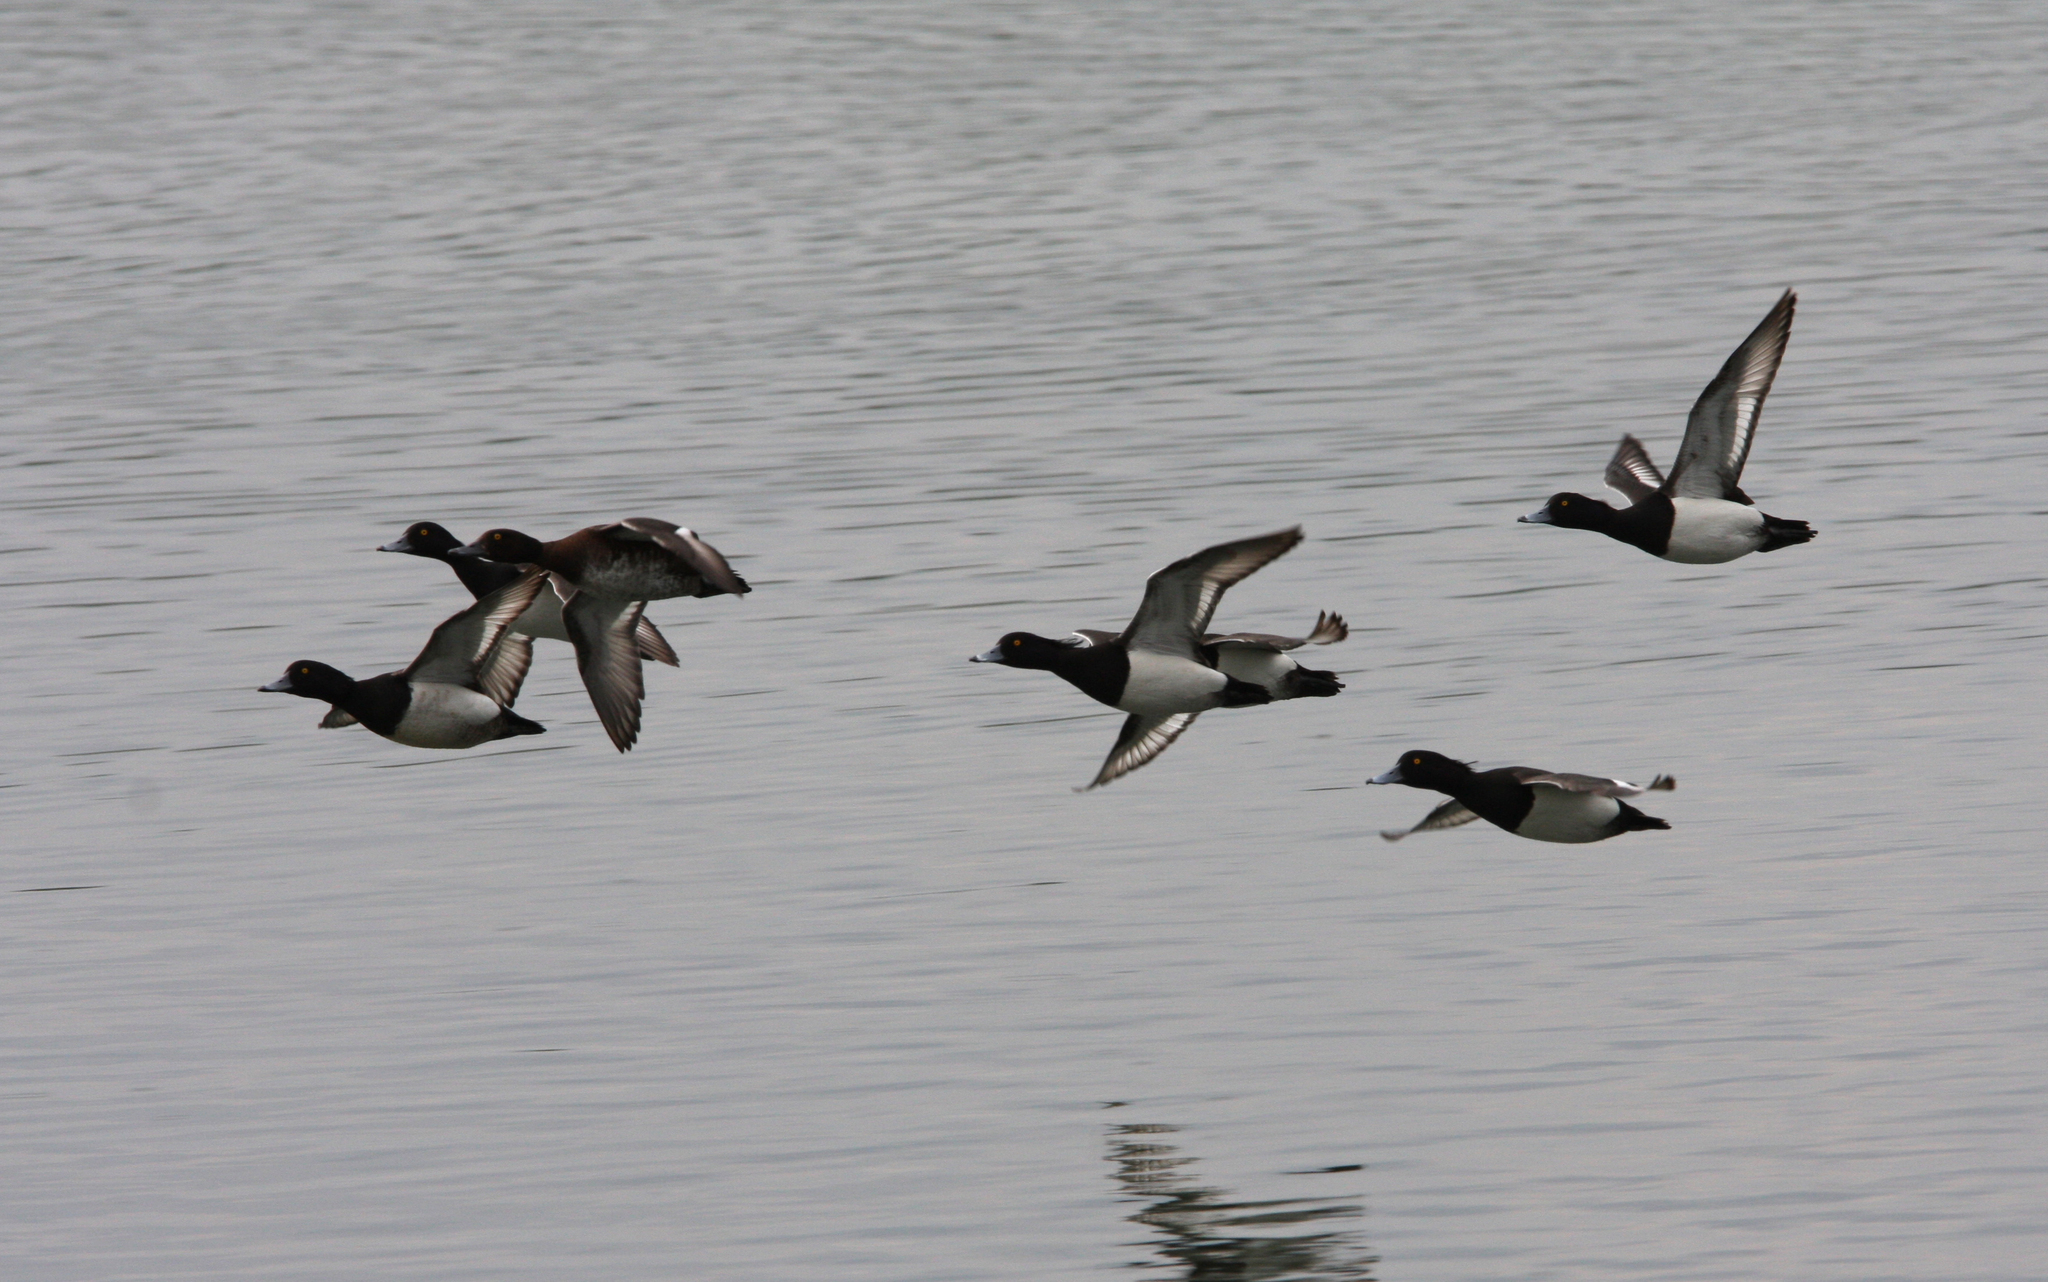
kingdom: Animalia
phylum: Chordata
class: Aves
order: Anseriformes
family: Anatidae
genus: Aythya
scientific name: Aythya fuligula
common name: Tufted duck
